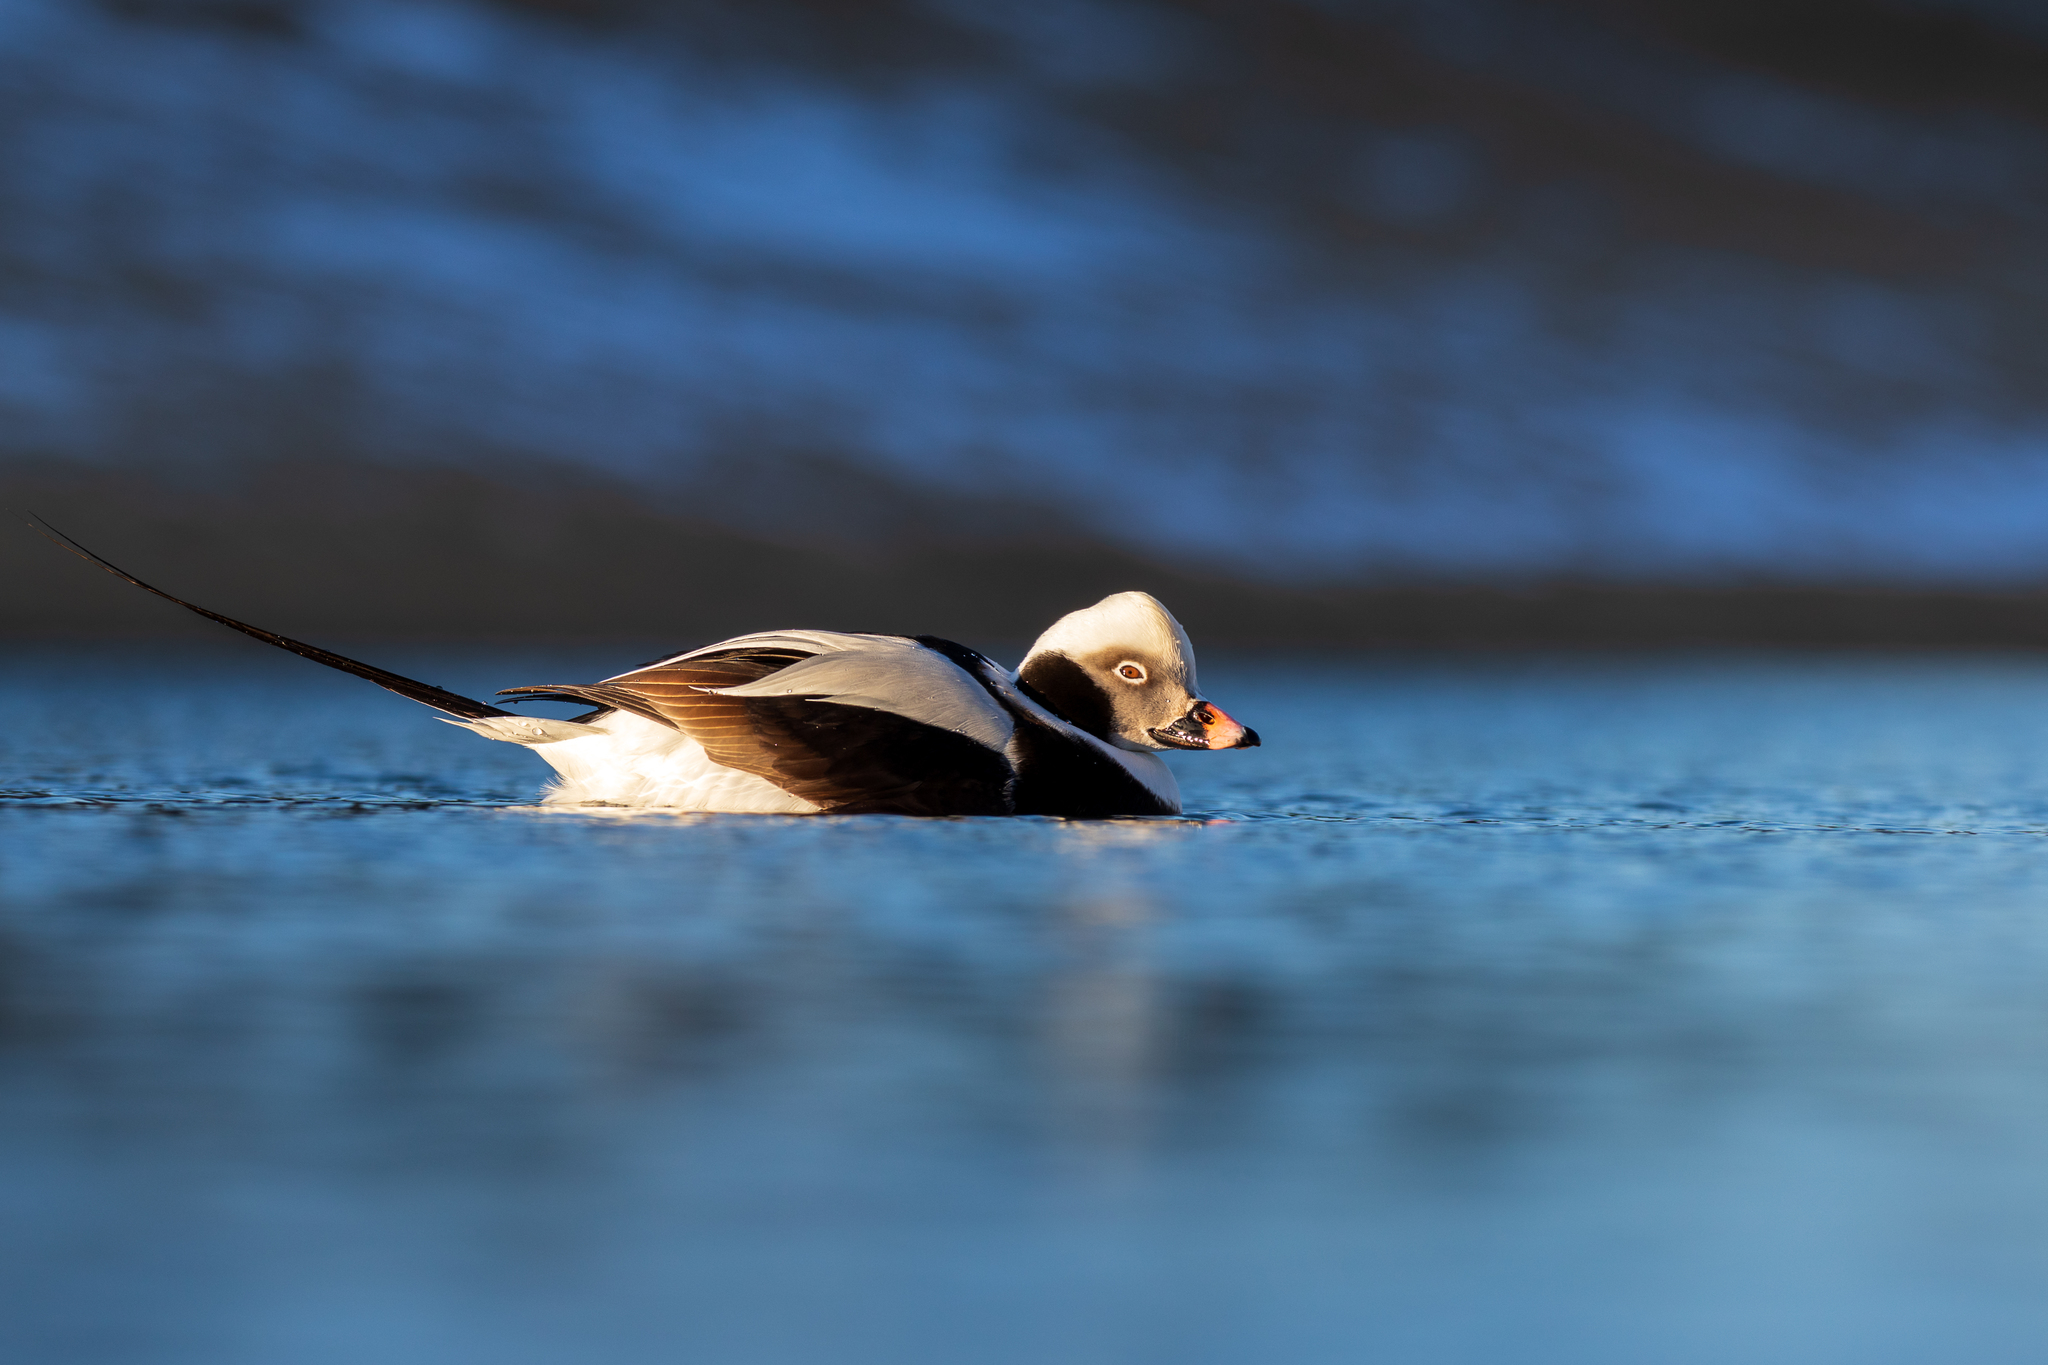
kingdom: Animalia
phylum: Chordata
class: Aves
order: Anseriformes
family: Anatidae
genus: Clangula
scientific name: Clangula hyemalis
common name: Long-tailed duck
